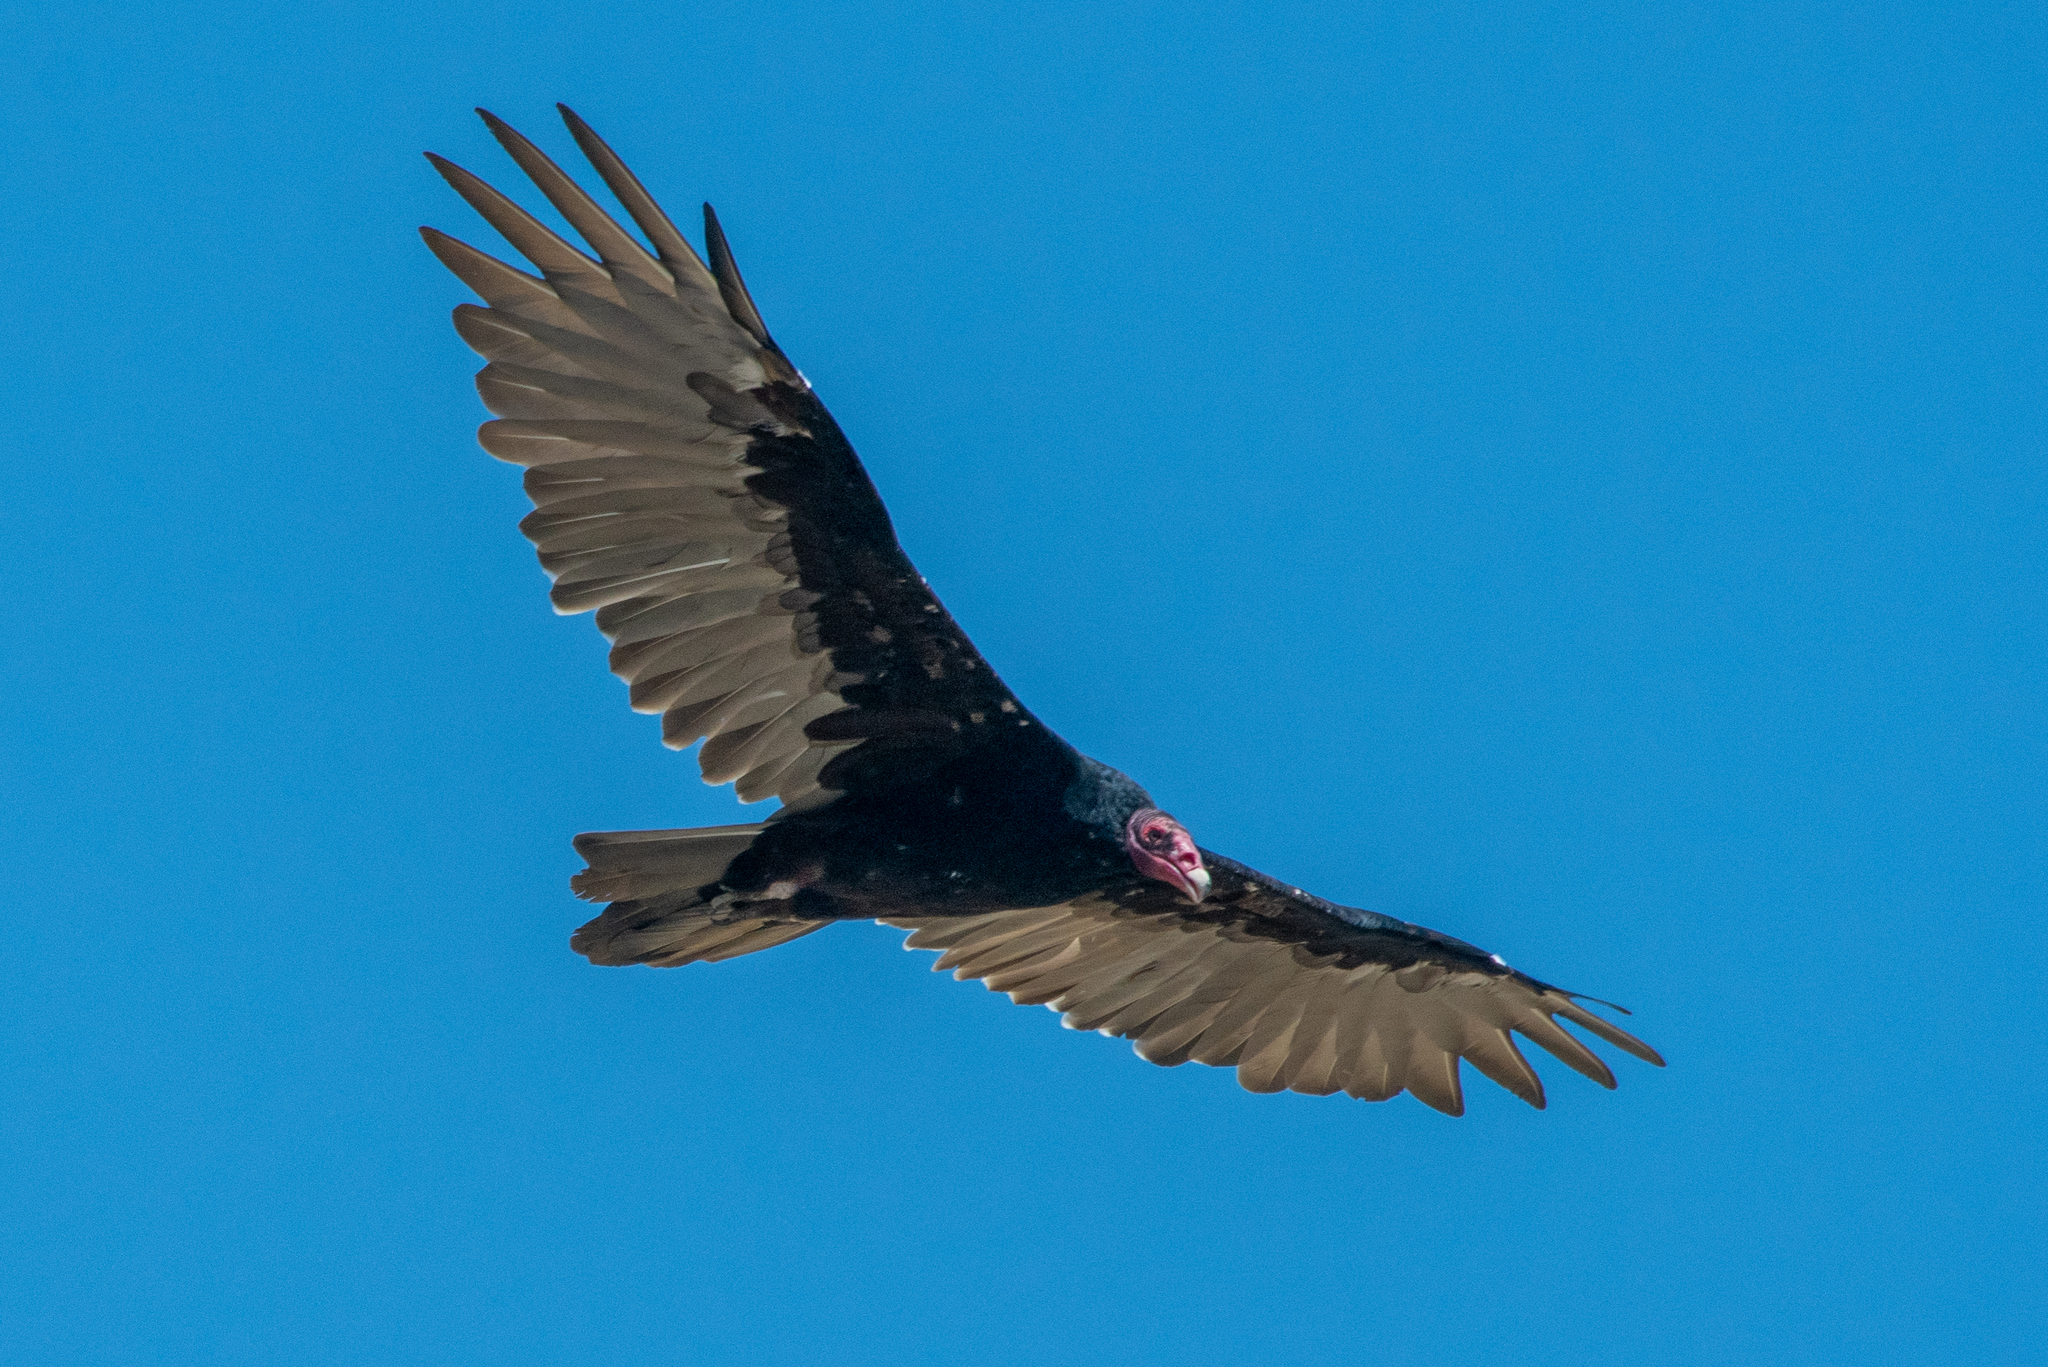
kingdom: Animalia
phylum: Chordata
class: Aves
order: Accipitriformes
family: Cathartidae
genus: Cathartes
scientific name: Cathartes aura
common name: Turkey vulture
